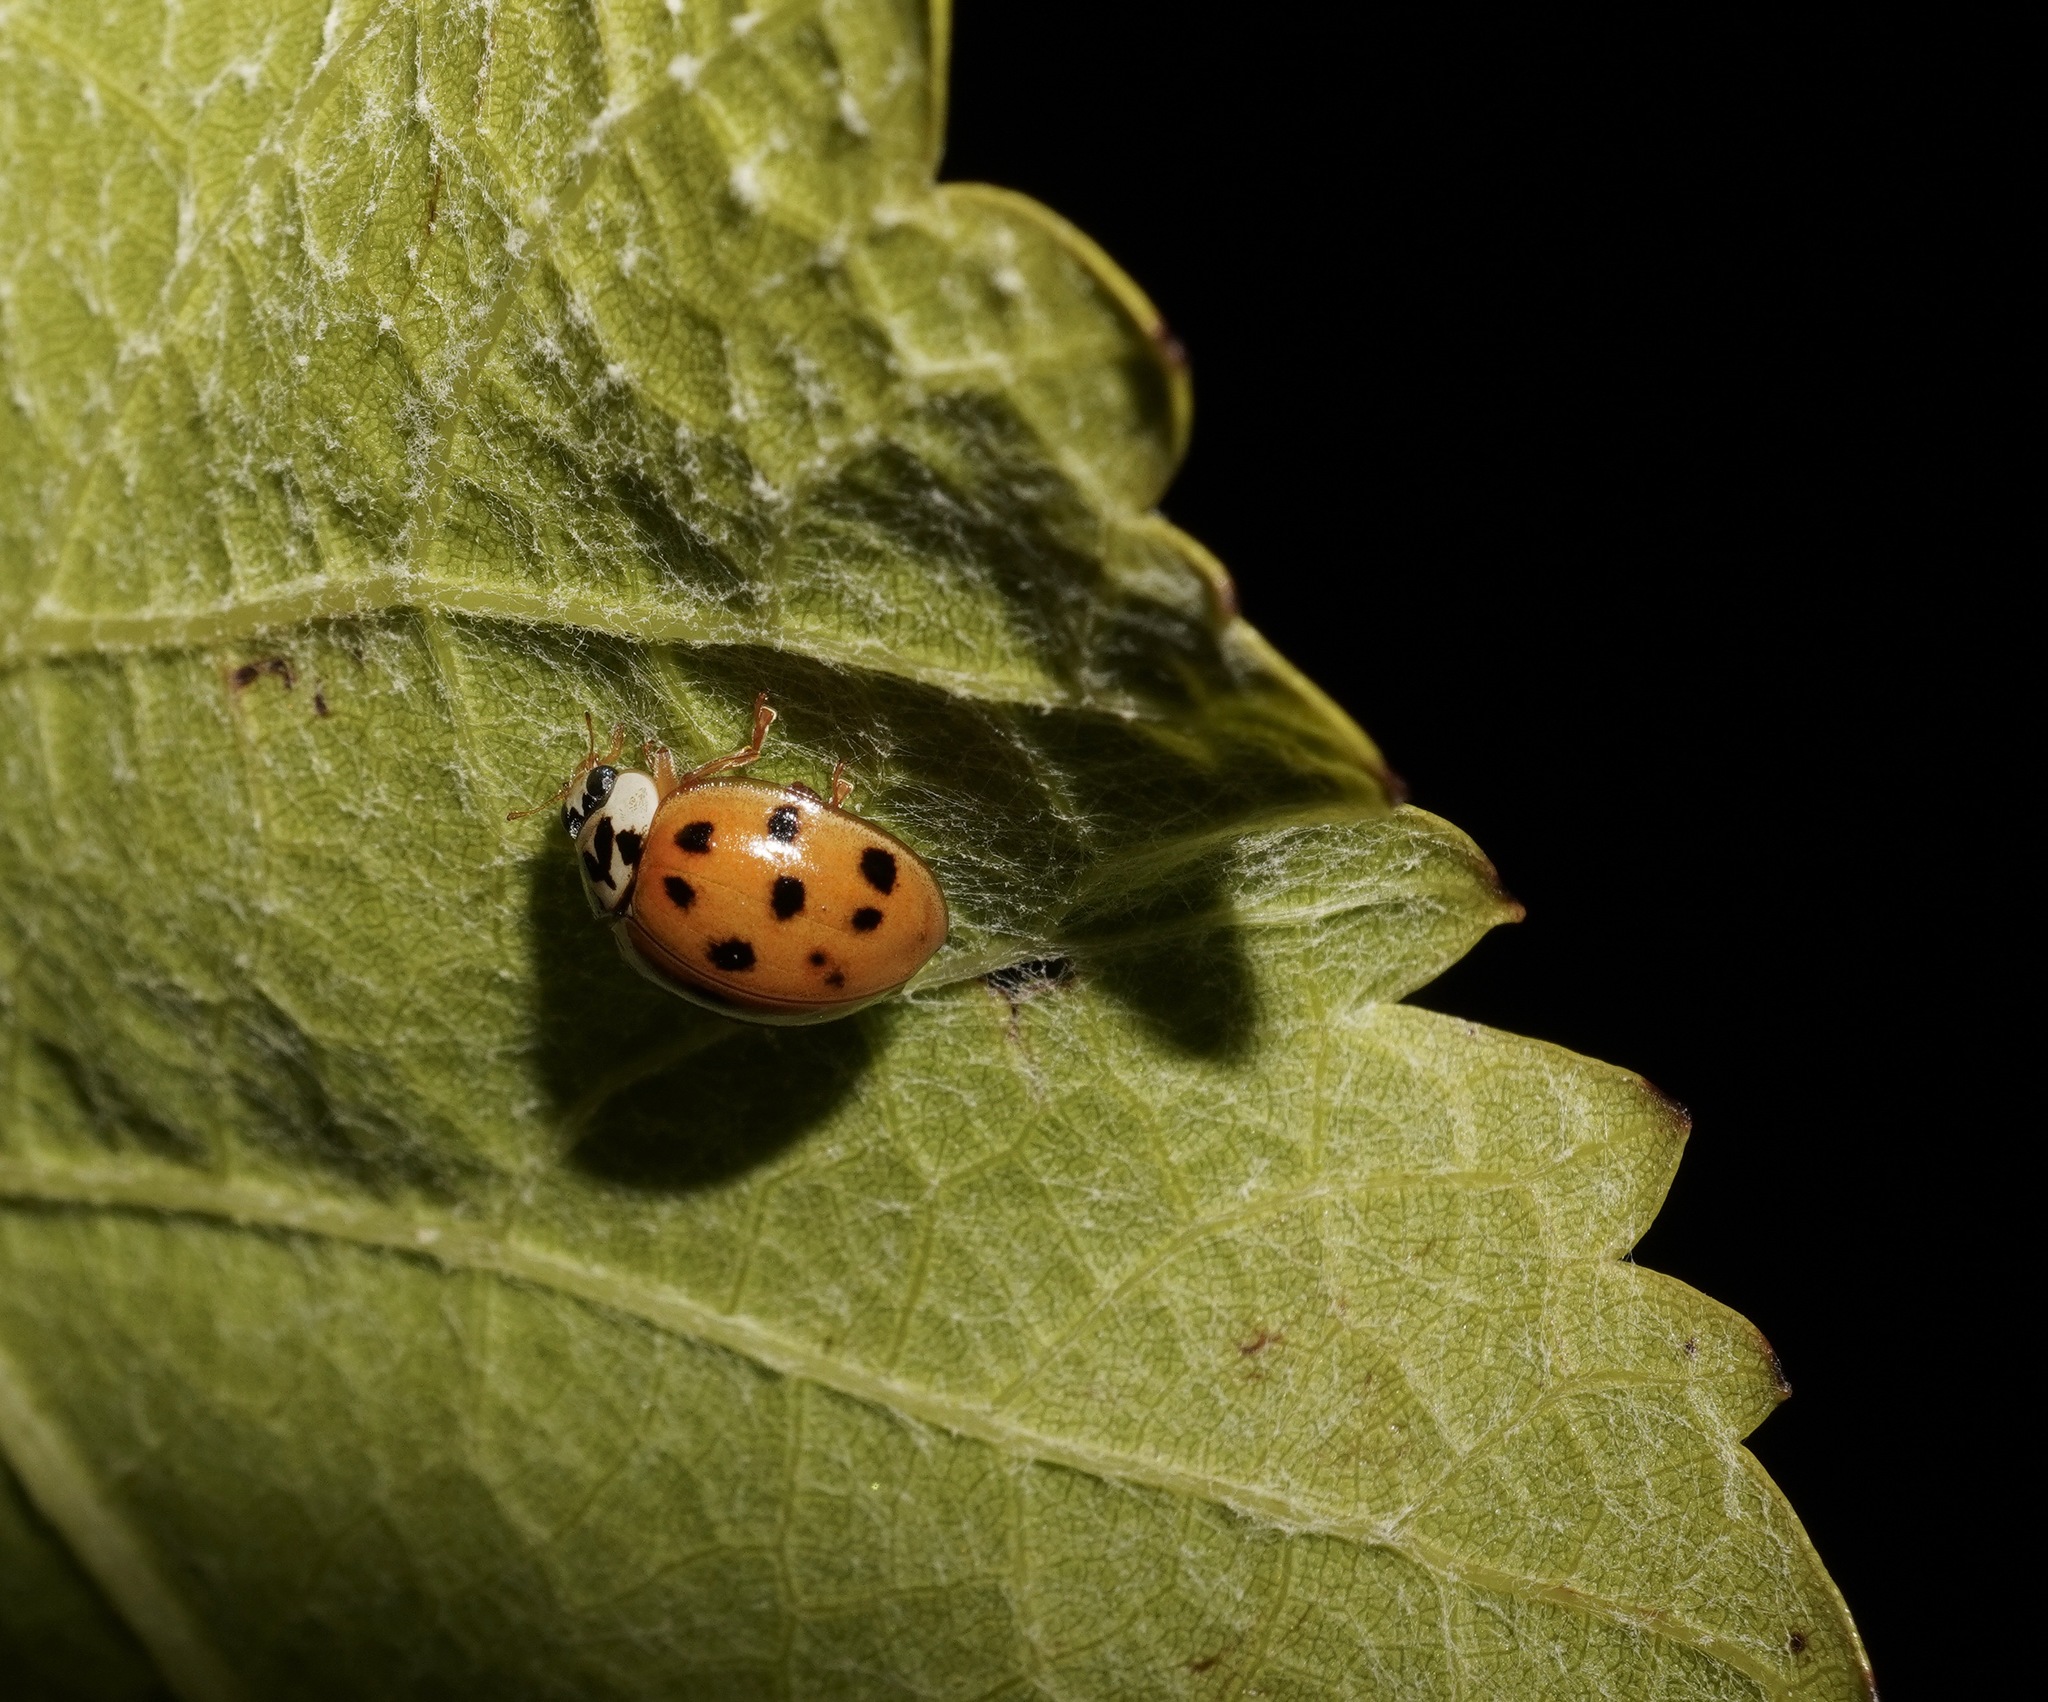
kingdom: Animalia
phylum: Arthropoda
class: Insecta
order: Coleoptera
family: Coccinellidae
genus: Harmonia
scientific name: Harmonia axyridis
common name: Harlequin ladybird
